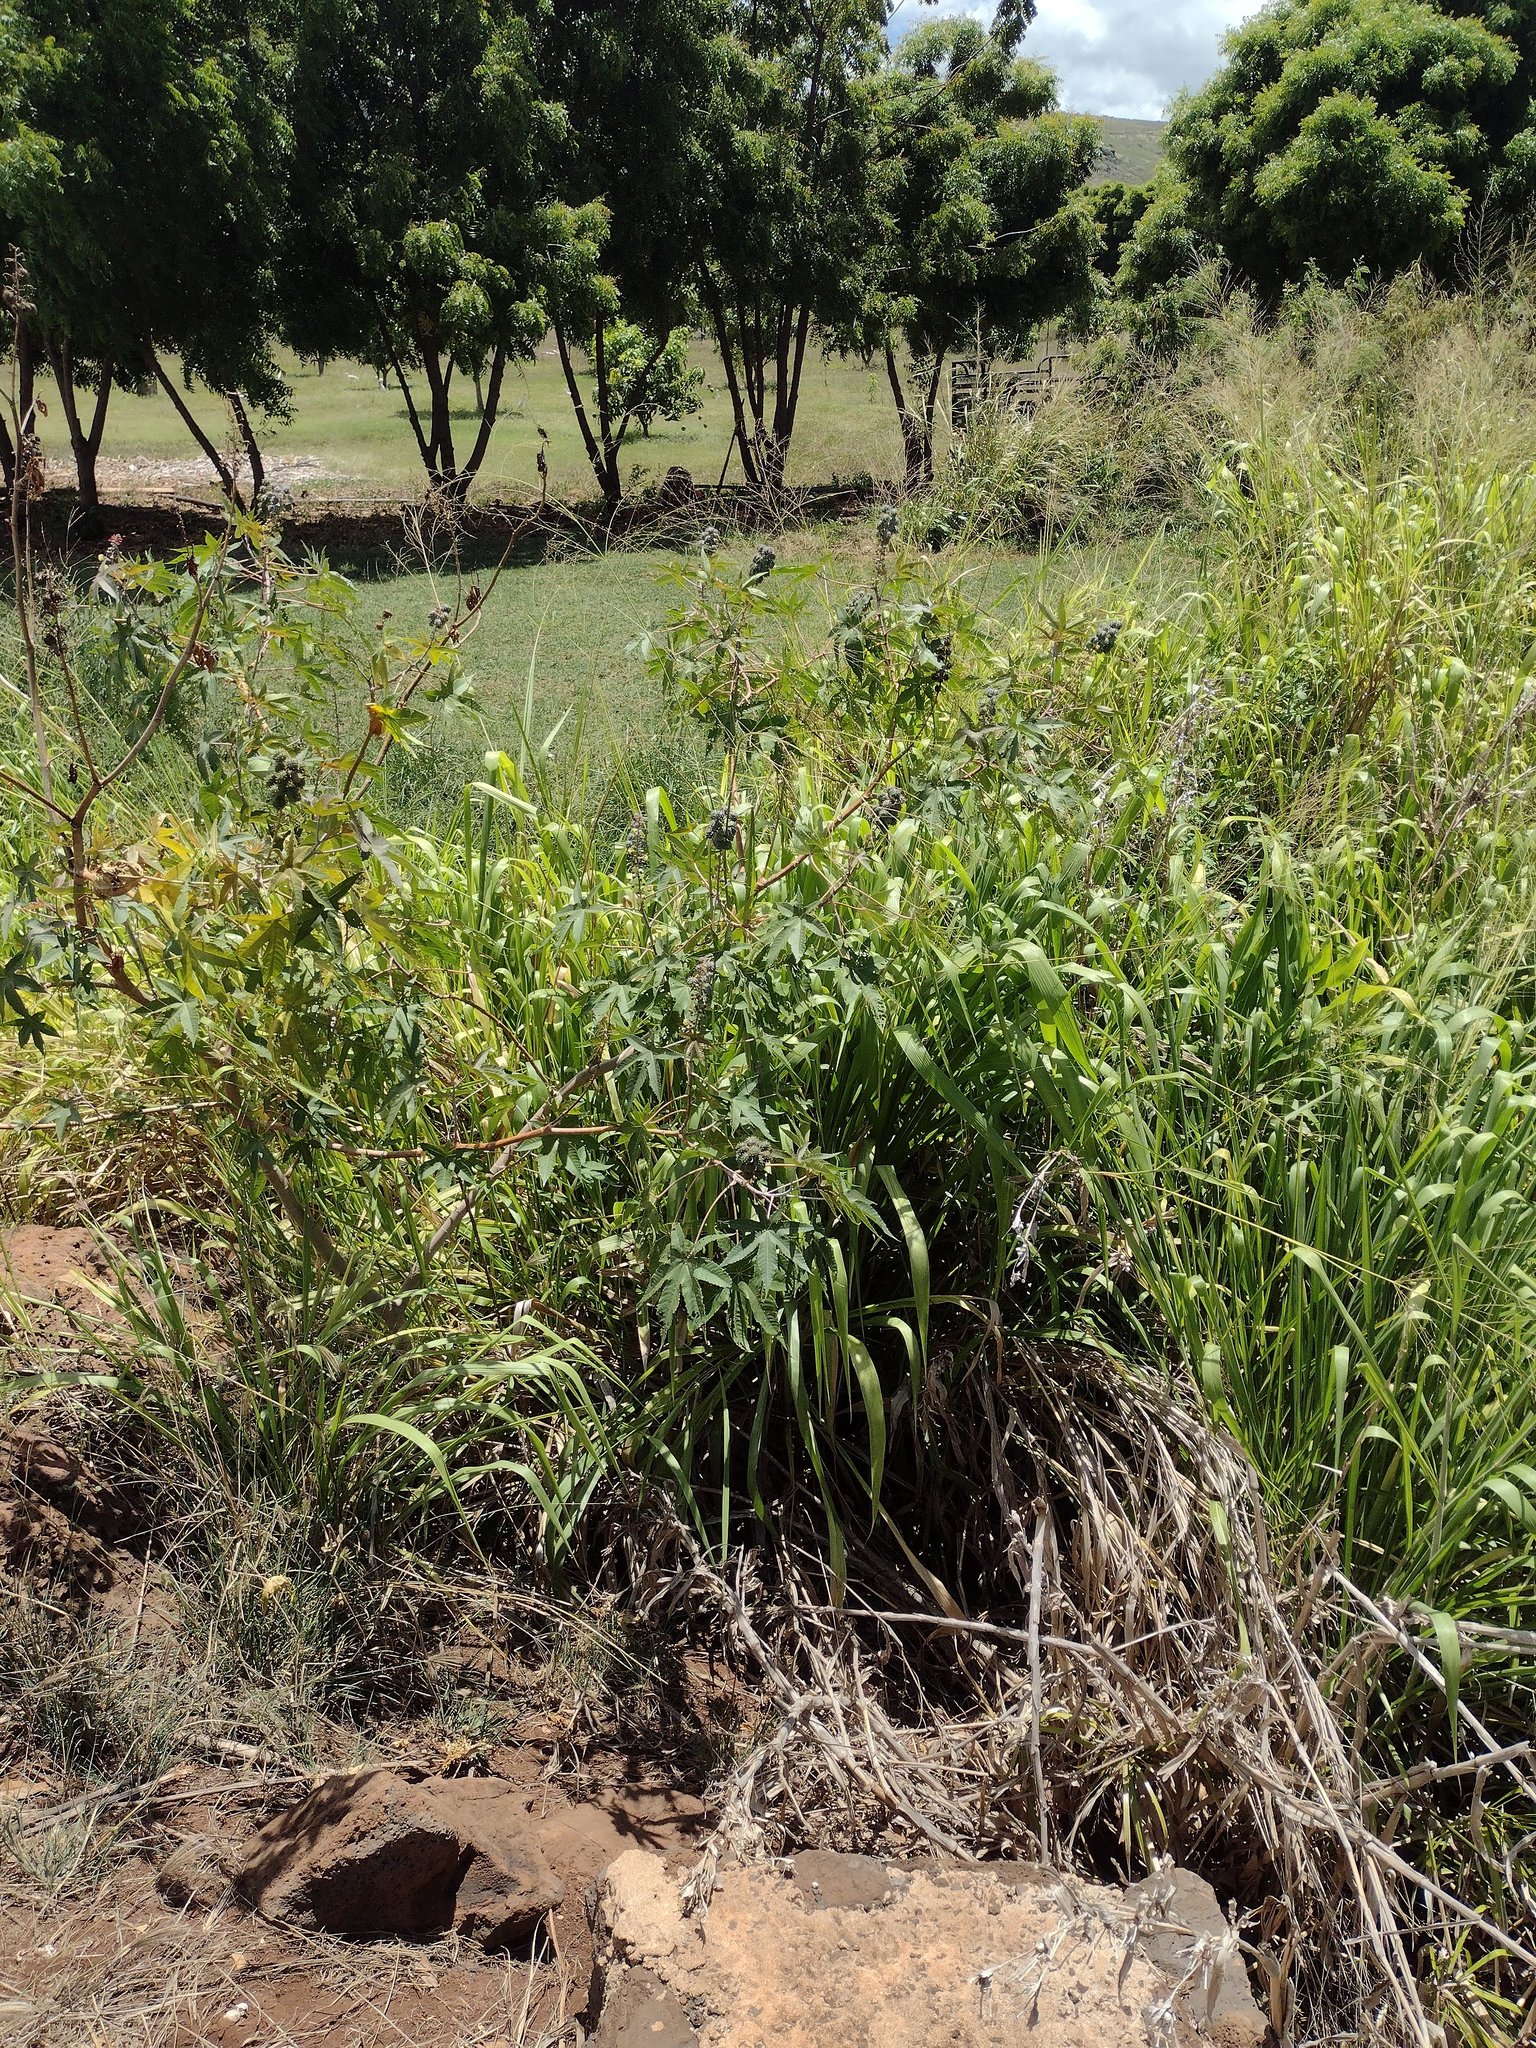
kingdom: Plantae
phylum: Tracheophyta
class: Magnoliopsida
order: Malpighiales
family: Euphorbiaceae
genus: Ricinus
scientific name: Ricinus communis
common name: Castor-oil-plant
